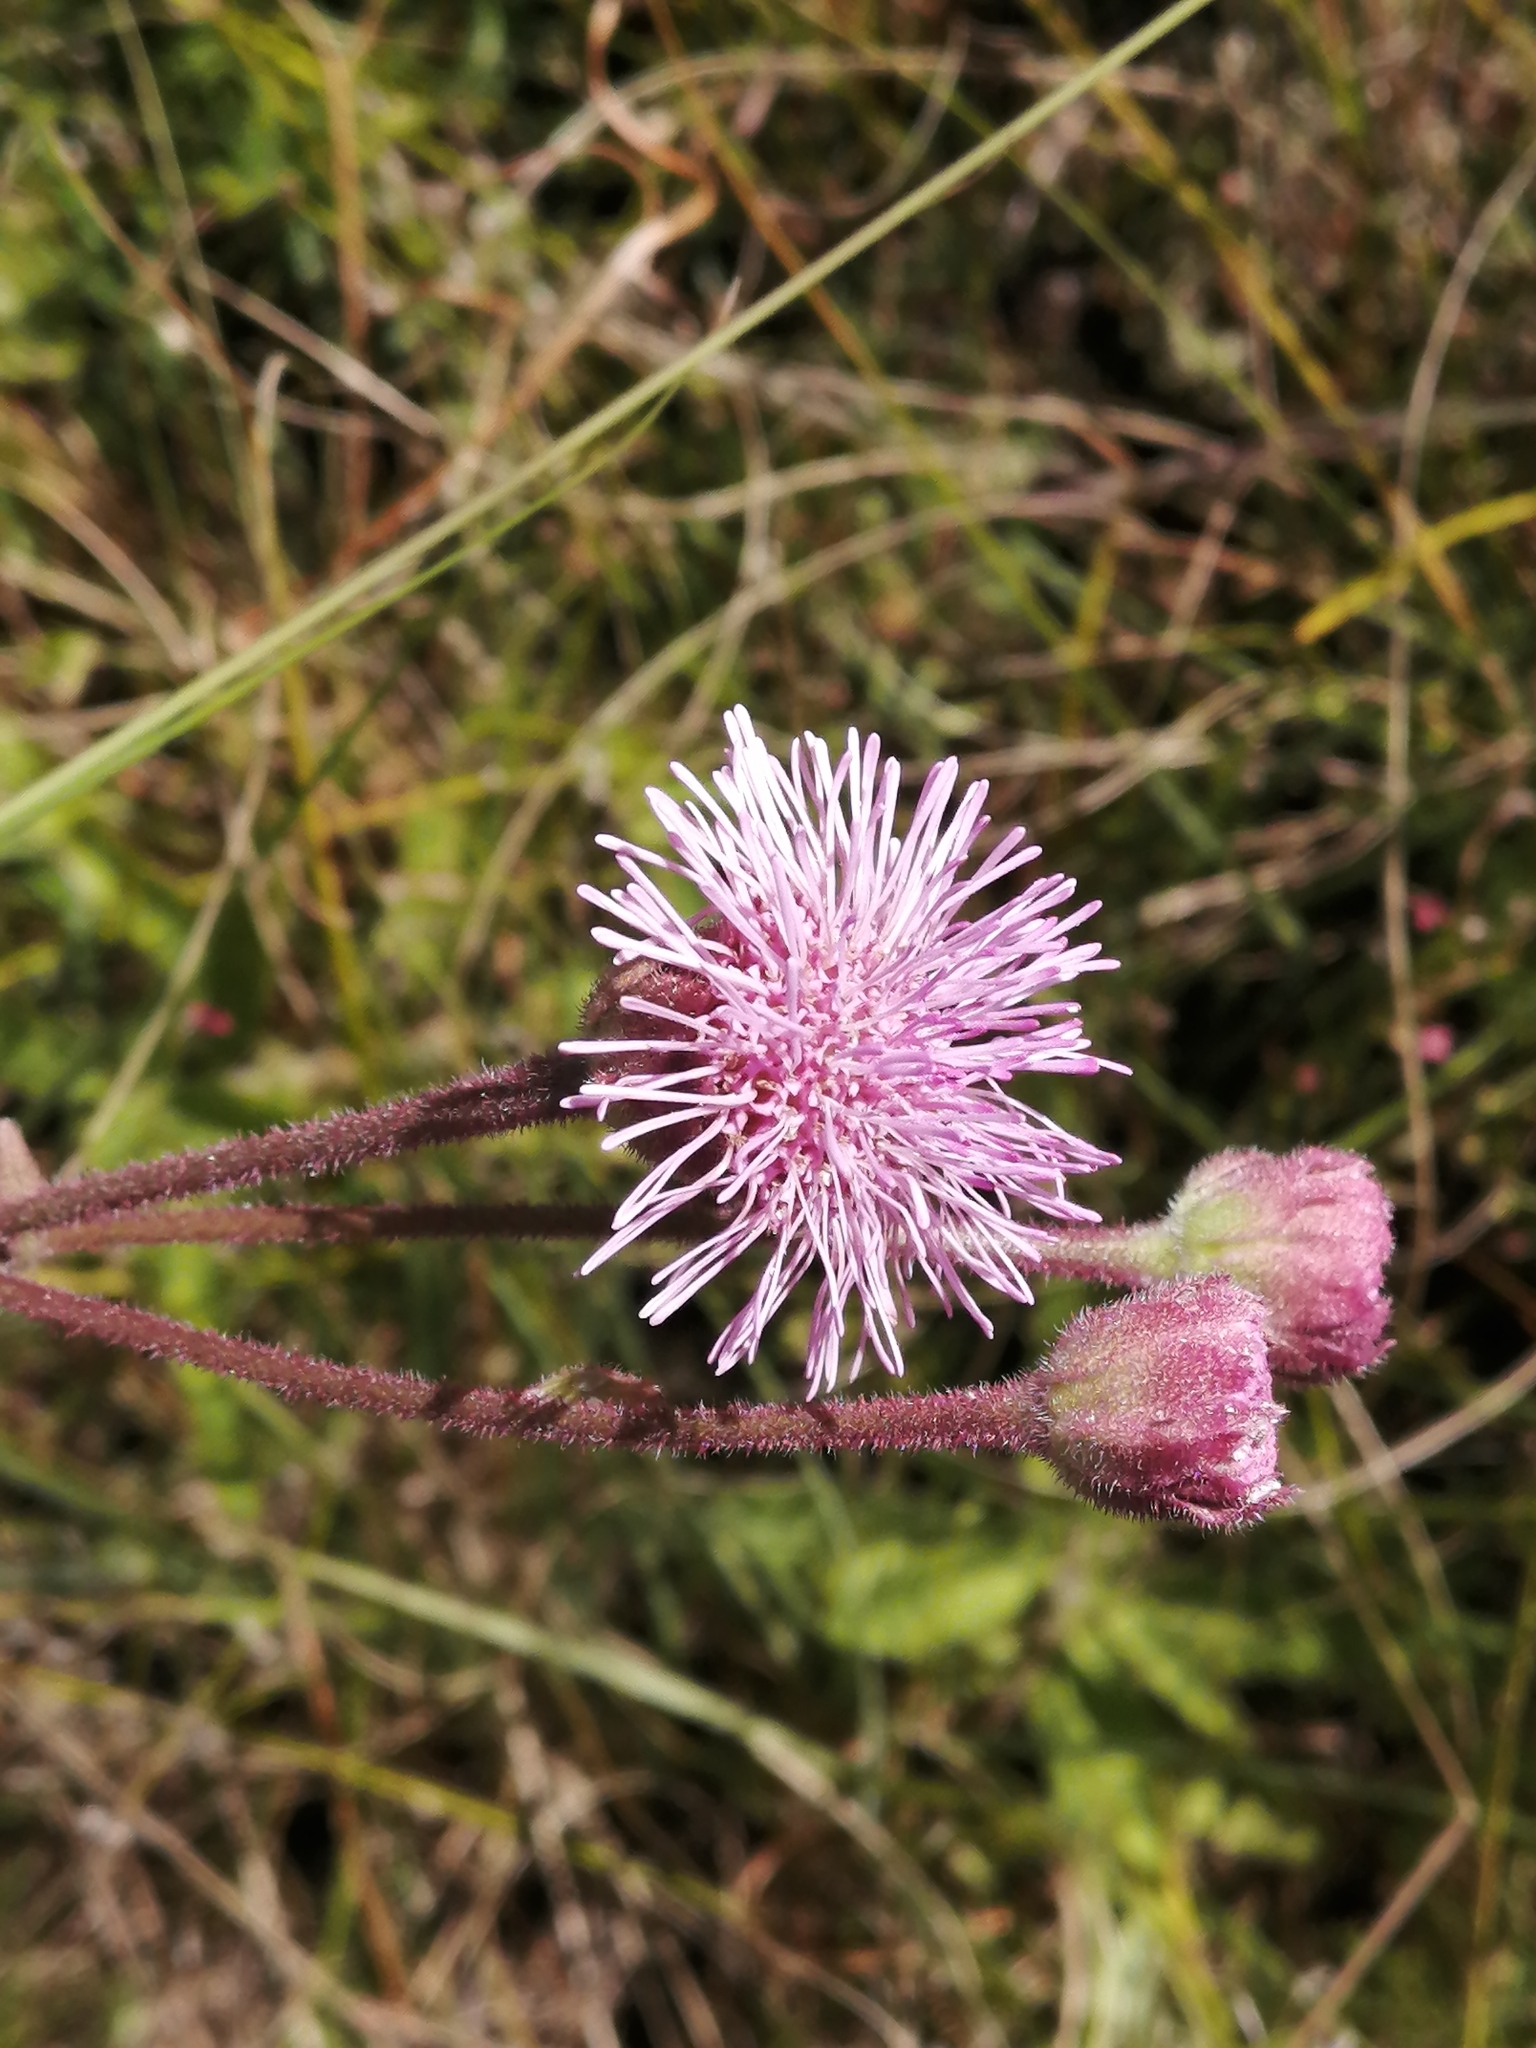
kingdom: Plantae
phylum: Tracheophyta
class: Magnoliopsida
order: Asterales
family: Asteraceae
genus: Campuloclinium
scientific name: Campuloclinium macrocephalum
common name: Pompomweed
